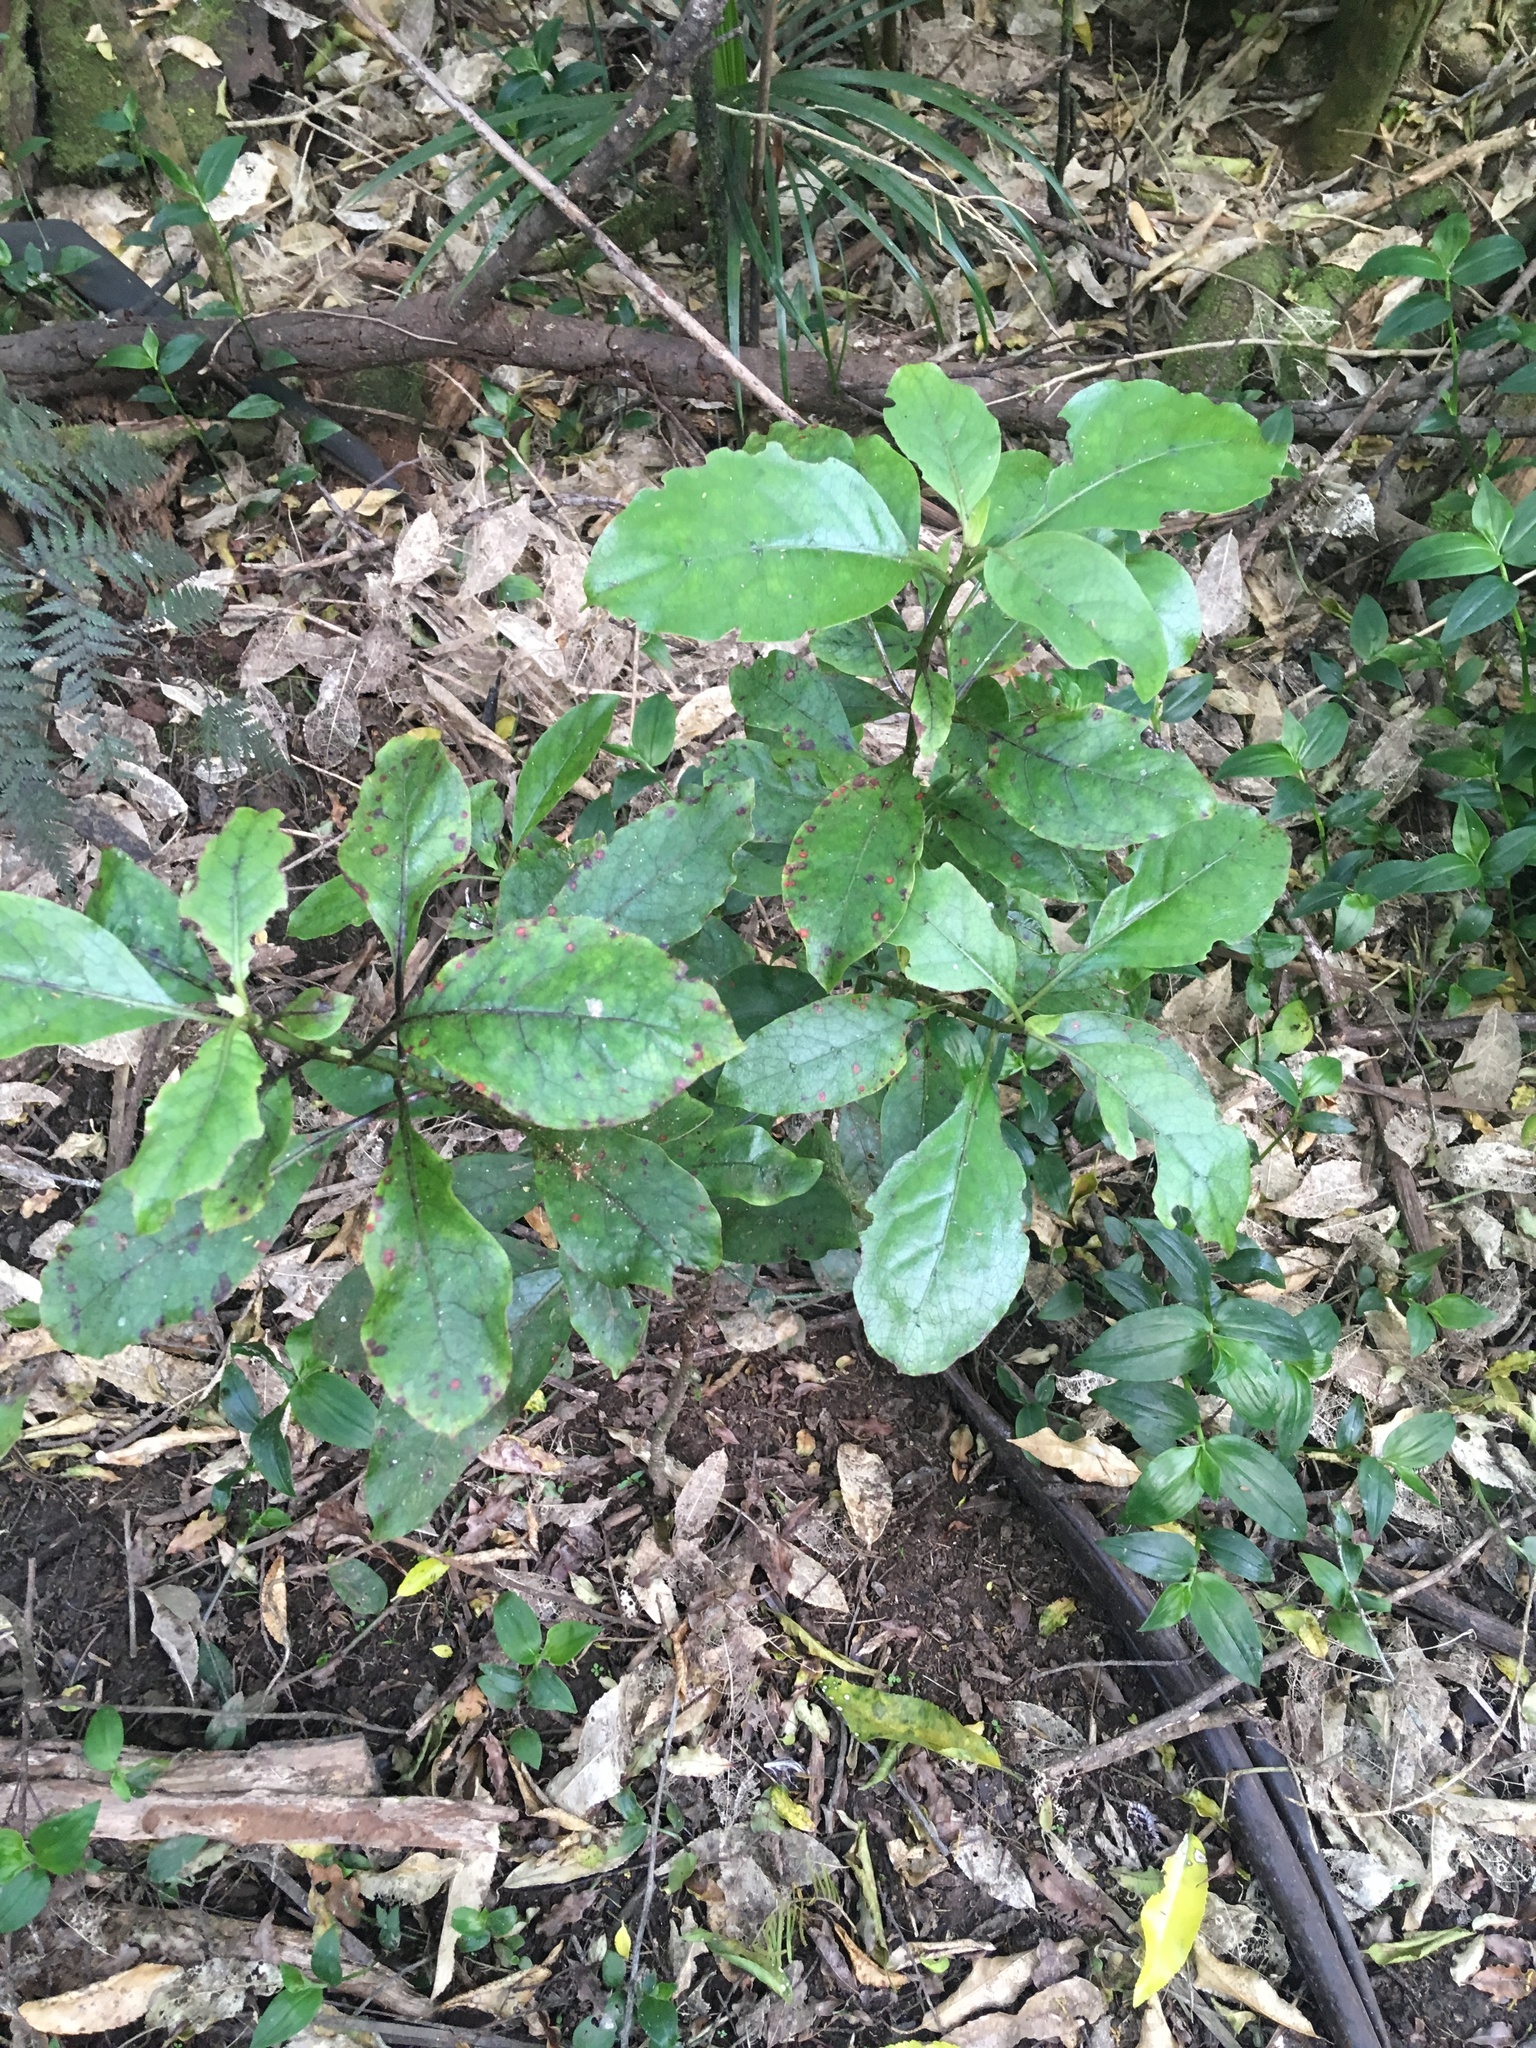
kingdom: Plantae
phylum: Tracheophyta
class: Magnoliopsida
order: Gentianales
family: Rubiaceae
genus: Coprosma
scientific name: Coprosma autumnalis
